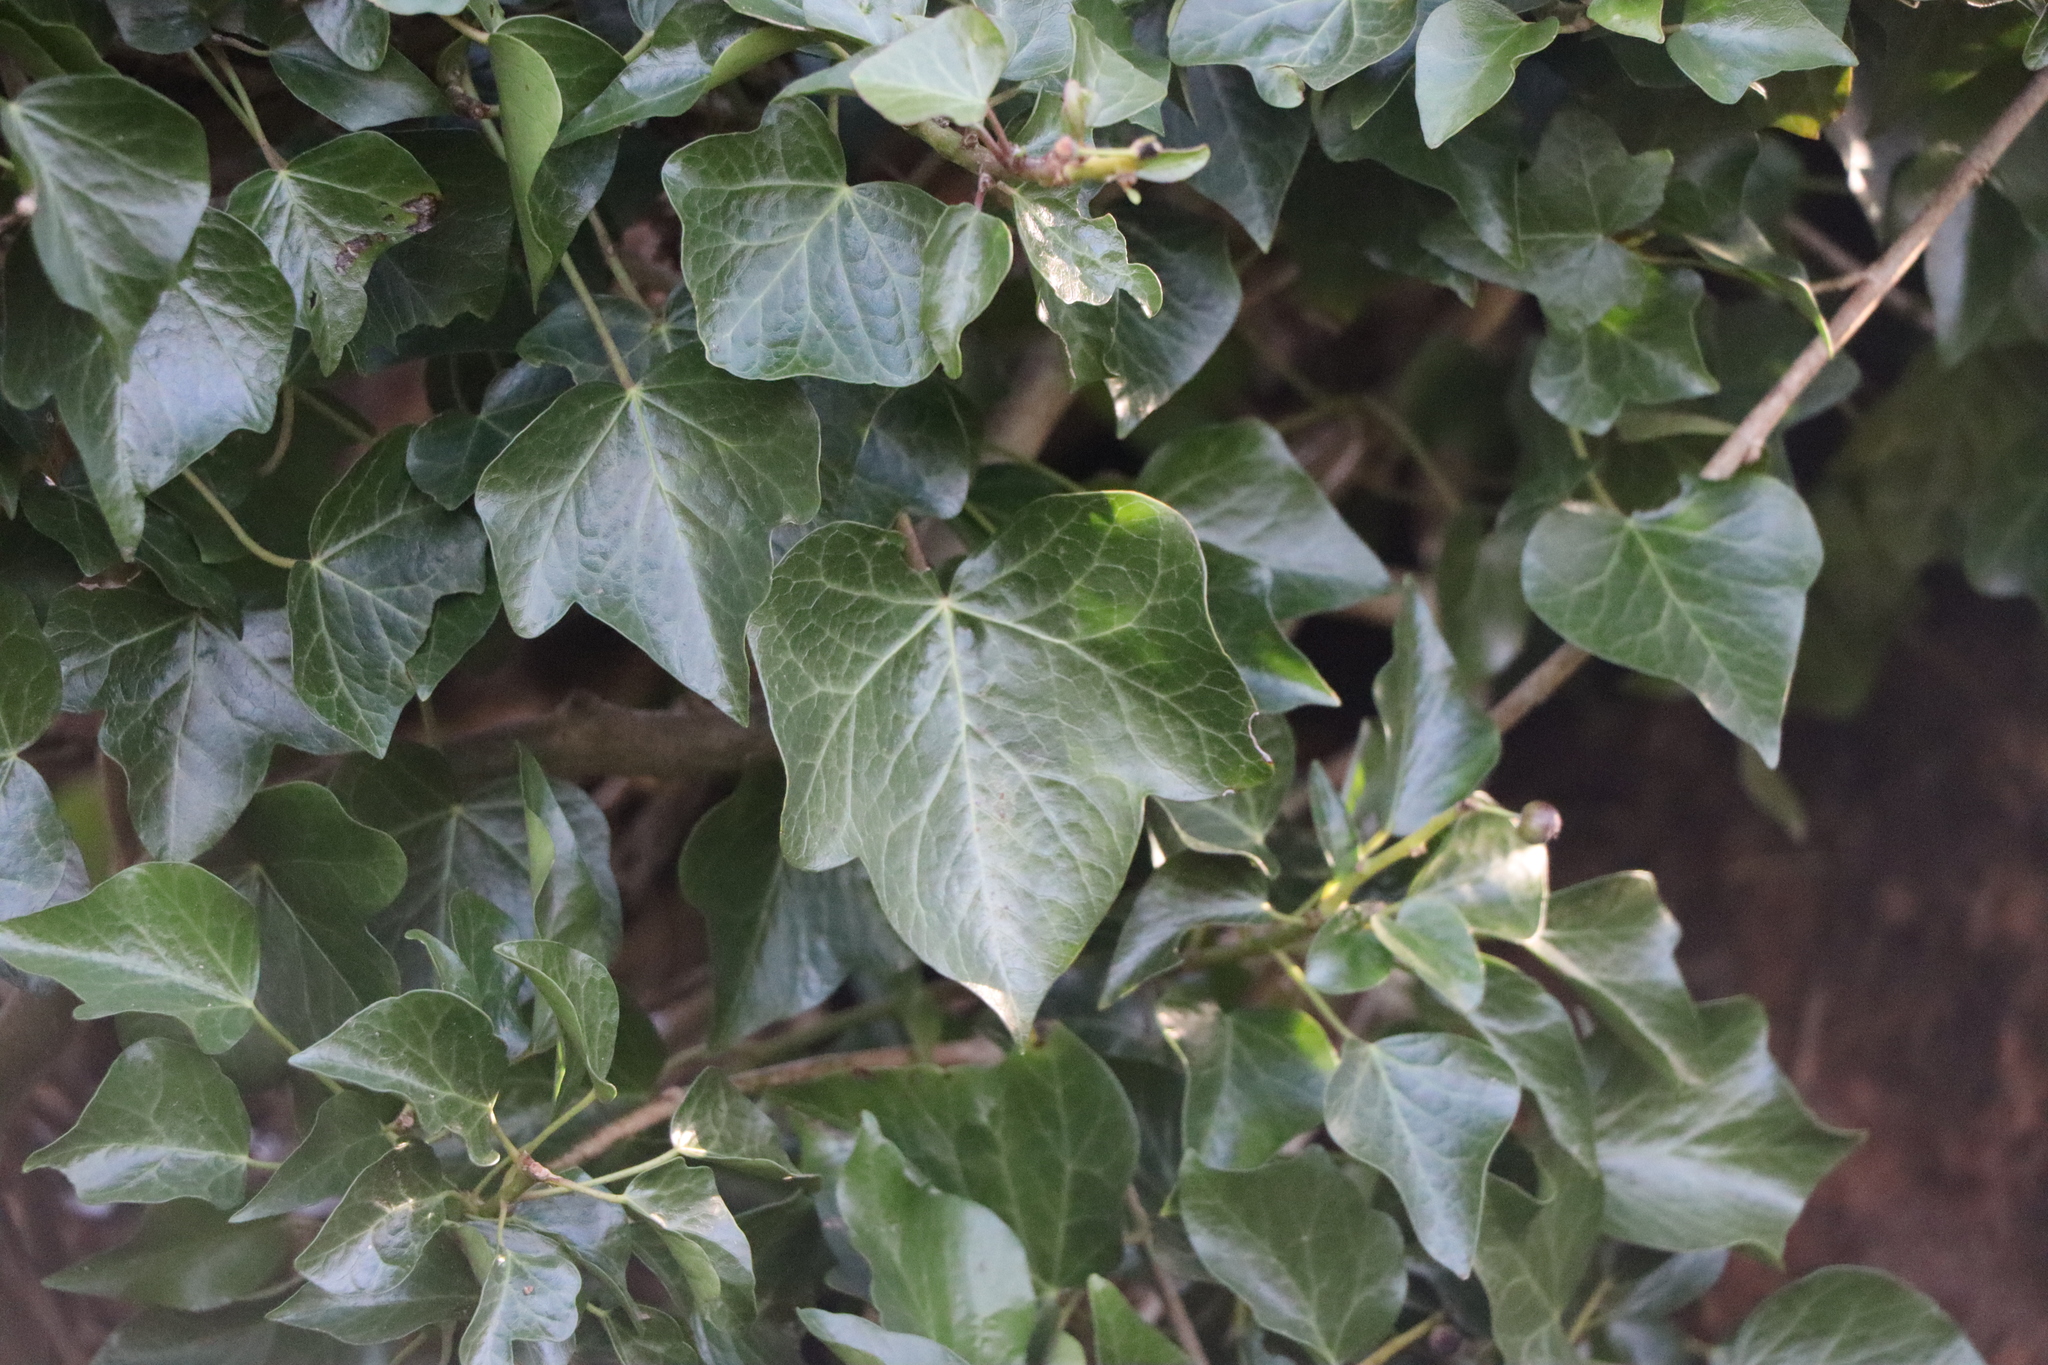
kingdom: Plantae
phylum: Tracheophyta
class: Magnoliopsida
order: Apiales
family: Araliaceae
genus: Hedera
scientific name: Hedera helix
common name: Ivy
